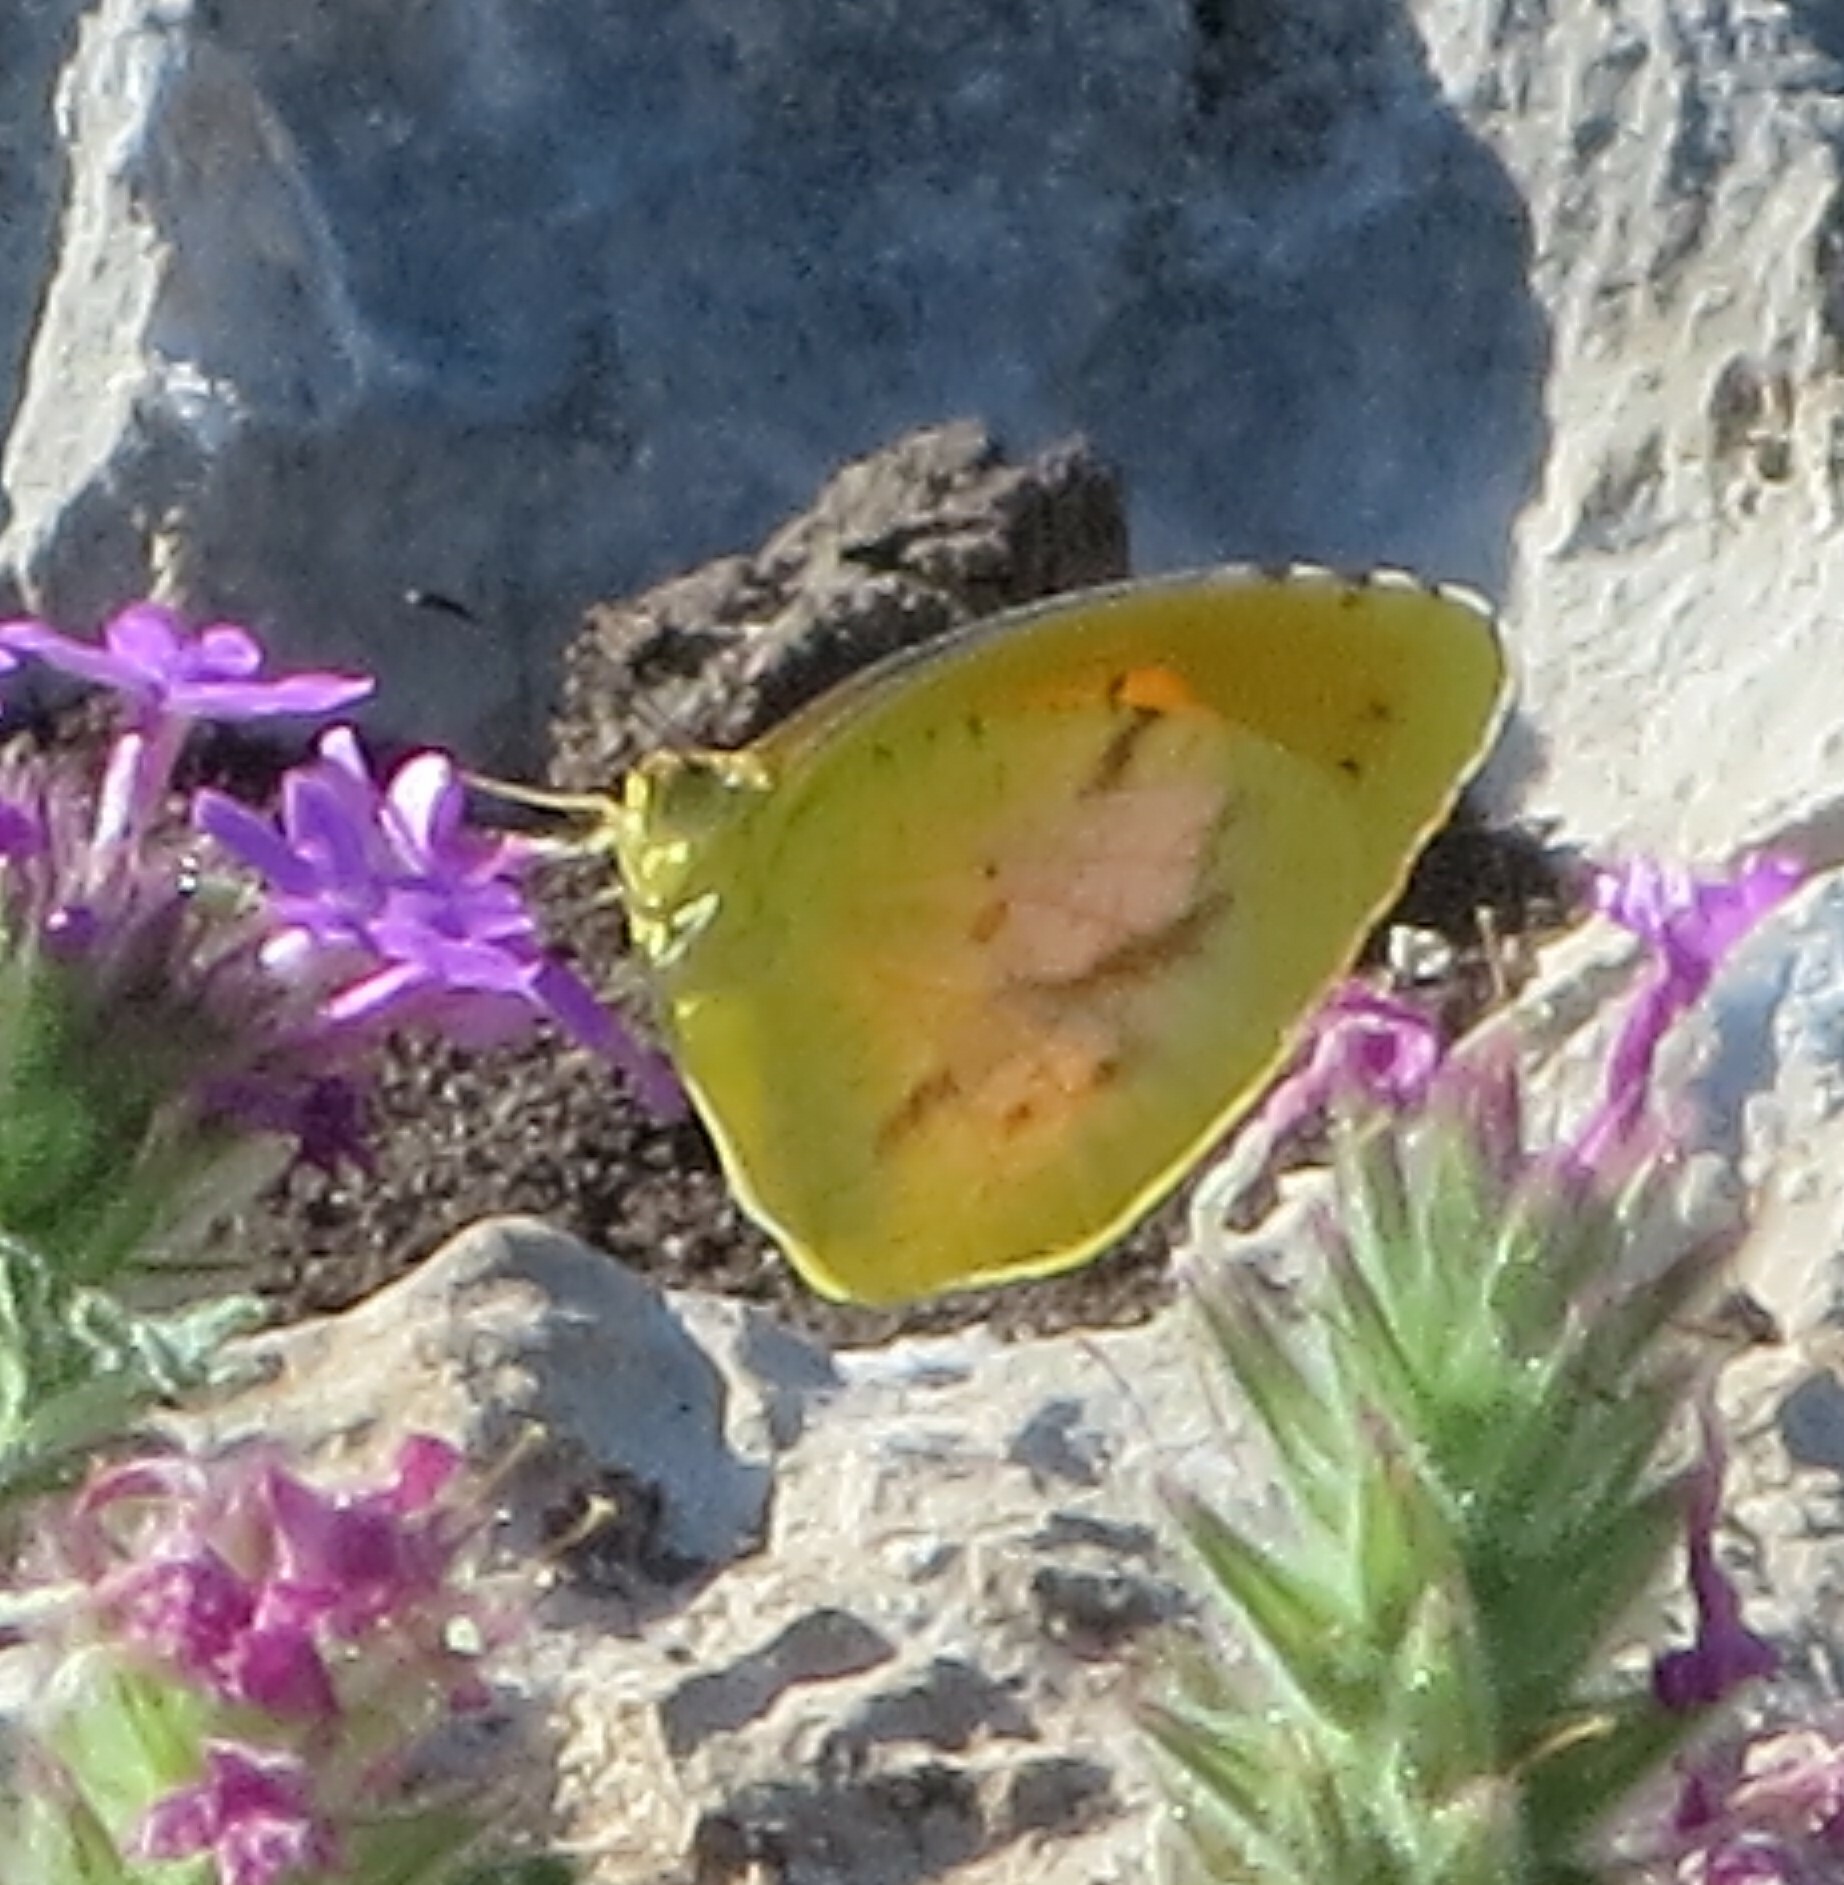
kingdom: Animalia
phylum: Arthropoda
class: Insecta
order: Lepidoptera
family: Pieridae
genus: Abaeis
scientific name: Abaeis nicippe
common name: Sleepy orange
